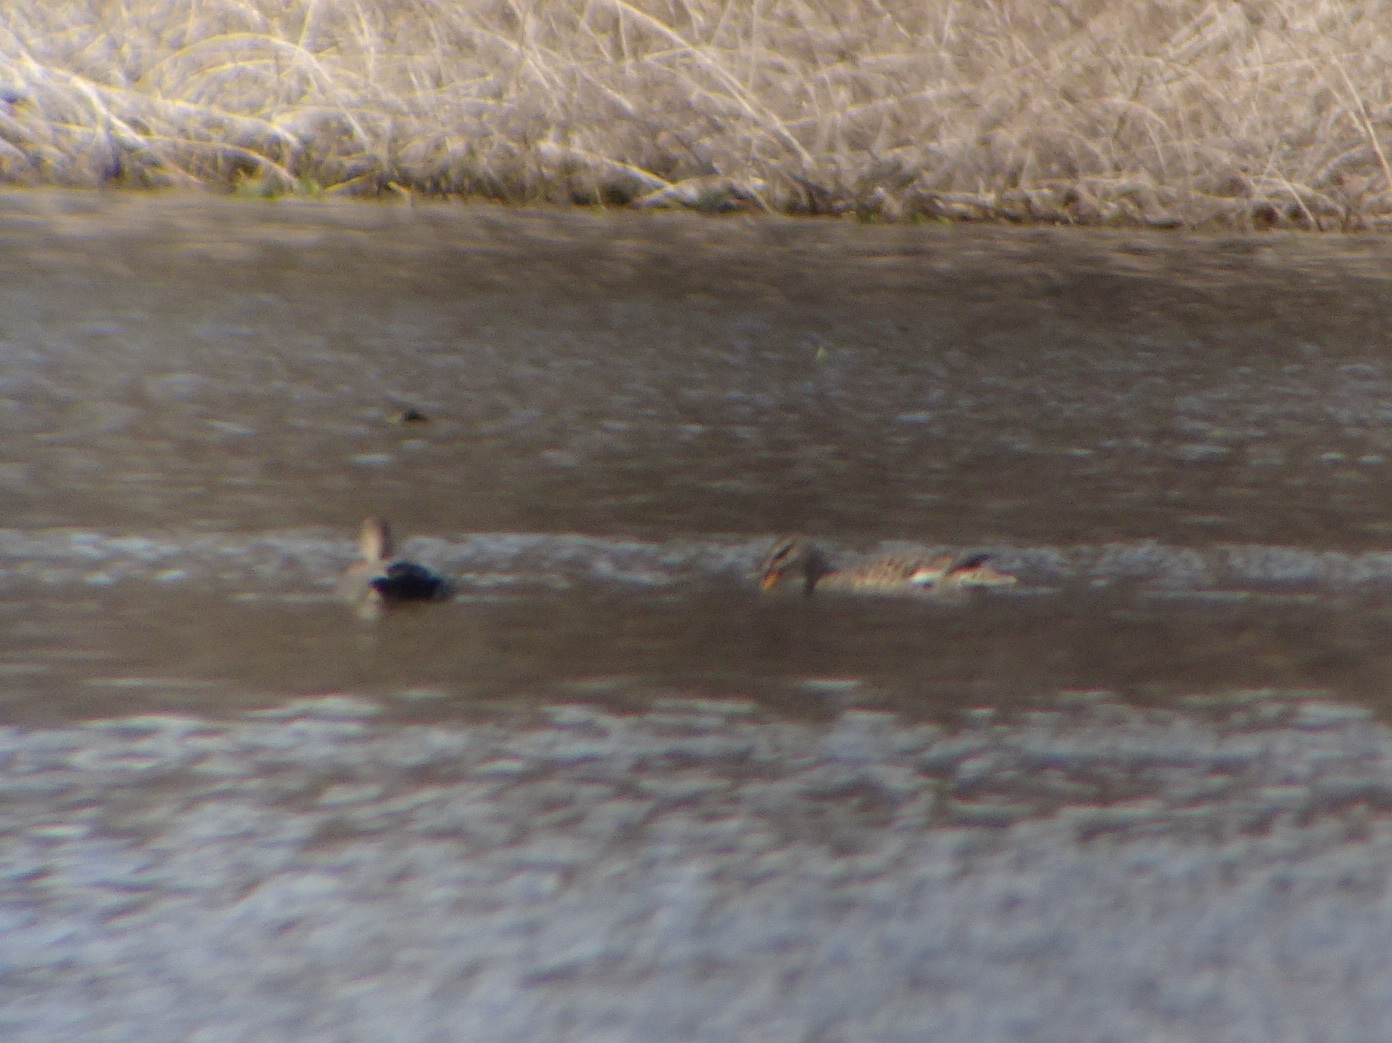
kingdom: Animalia
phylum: Chordata
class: Aves
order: Anseriformes
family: Anatidae
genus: Mareca
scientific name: Mareca strepera
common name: Gadwall
